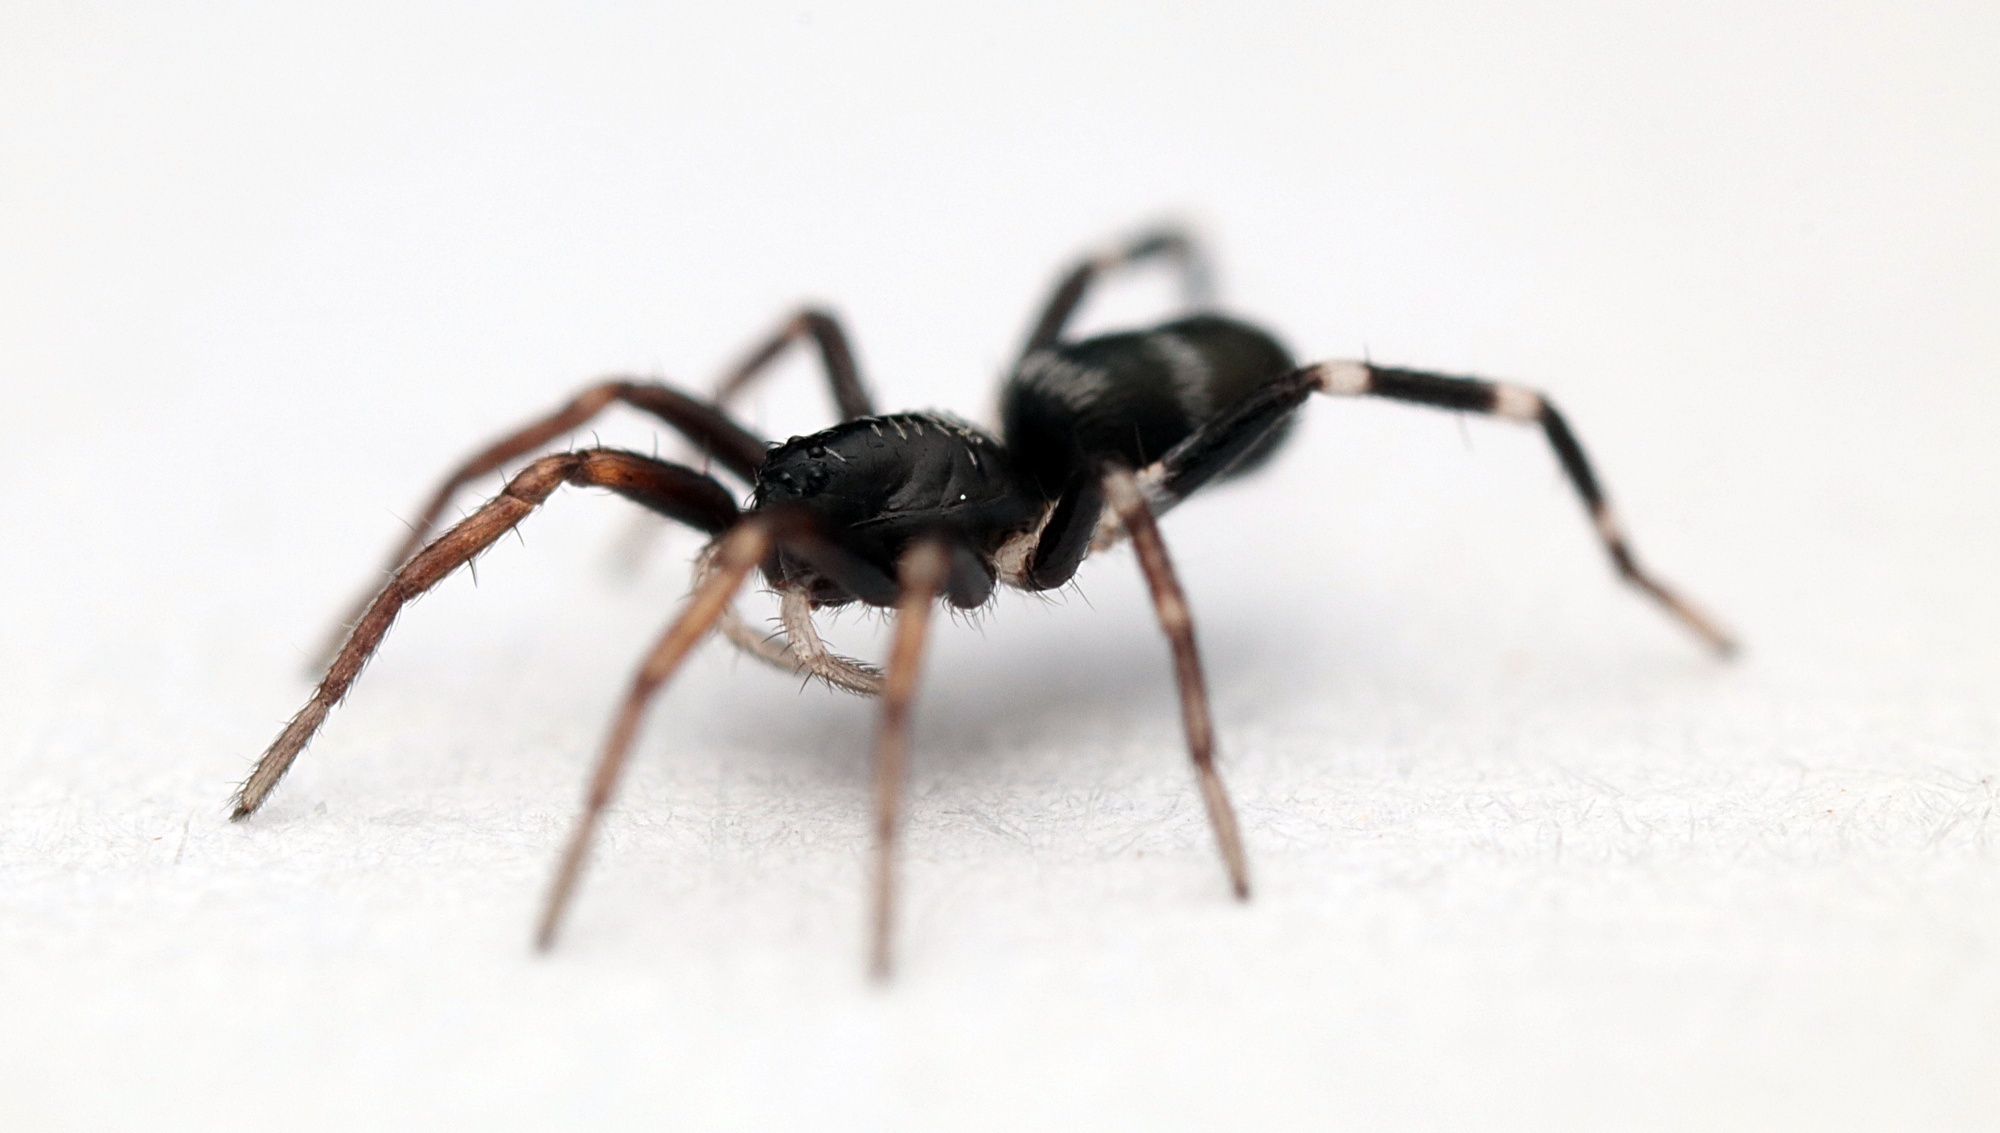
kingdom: Animalia
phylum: Arthropoda
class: Arachnida
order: Araneae
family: Corinnidae
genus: Nyssus
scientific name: Nyssus coloripes
